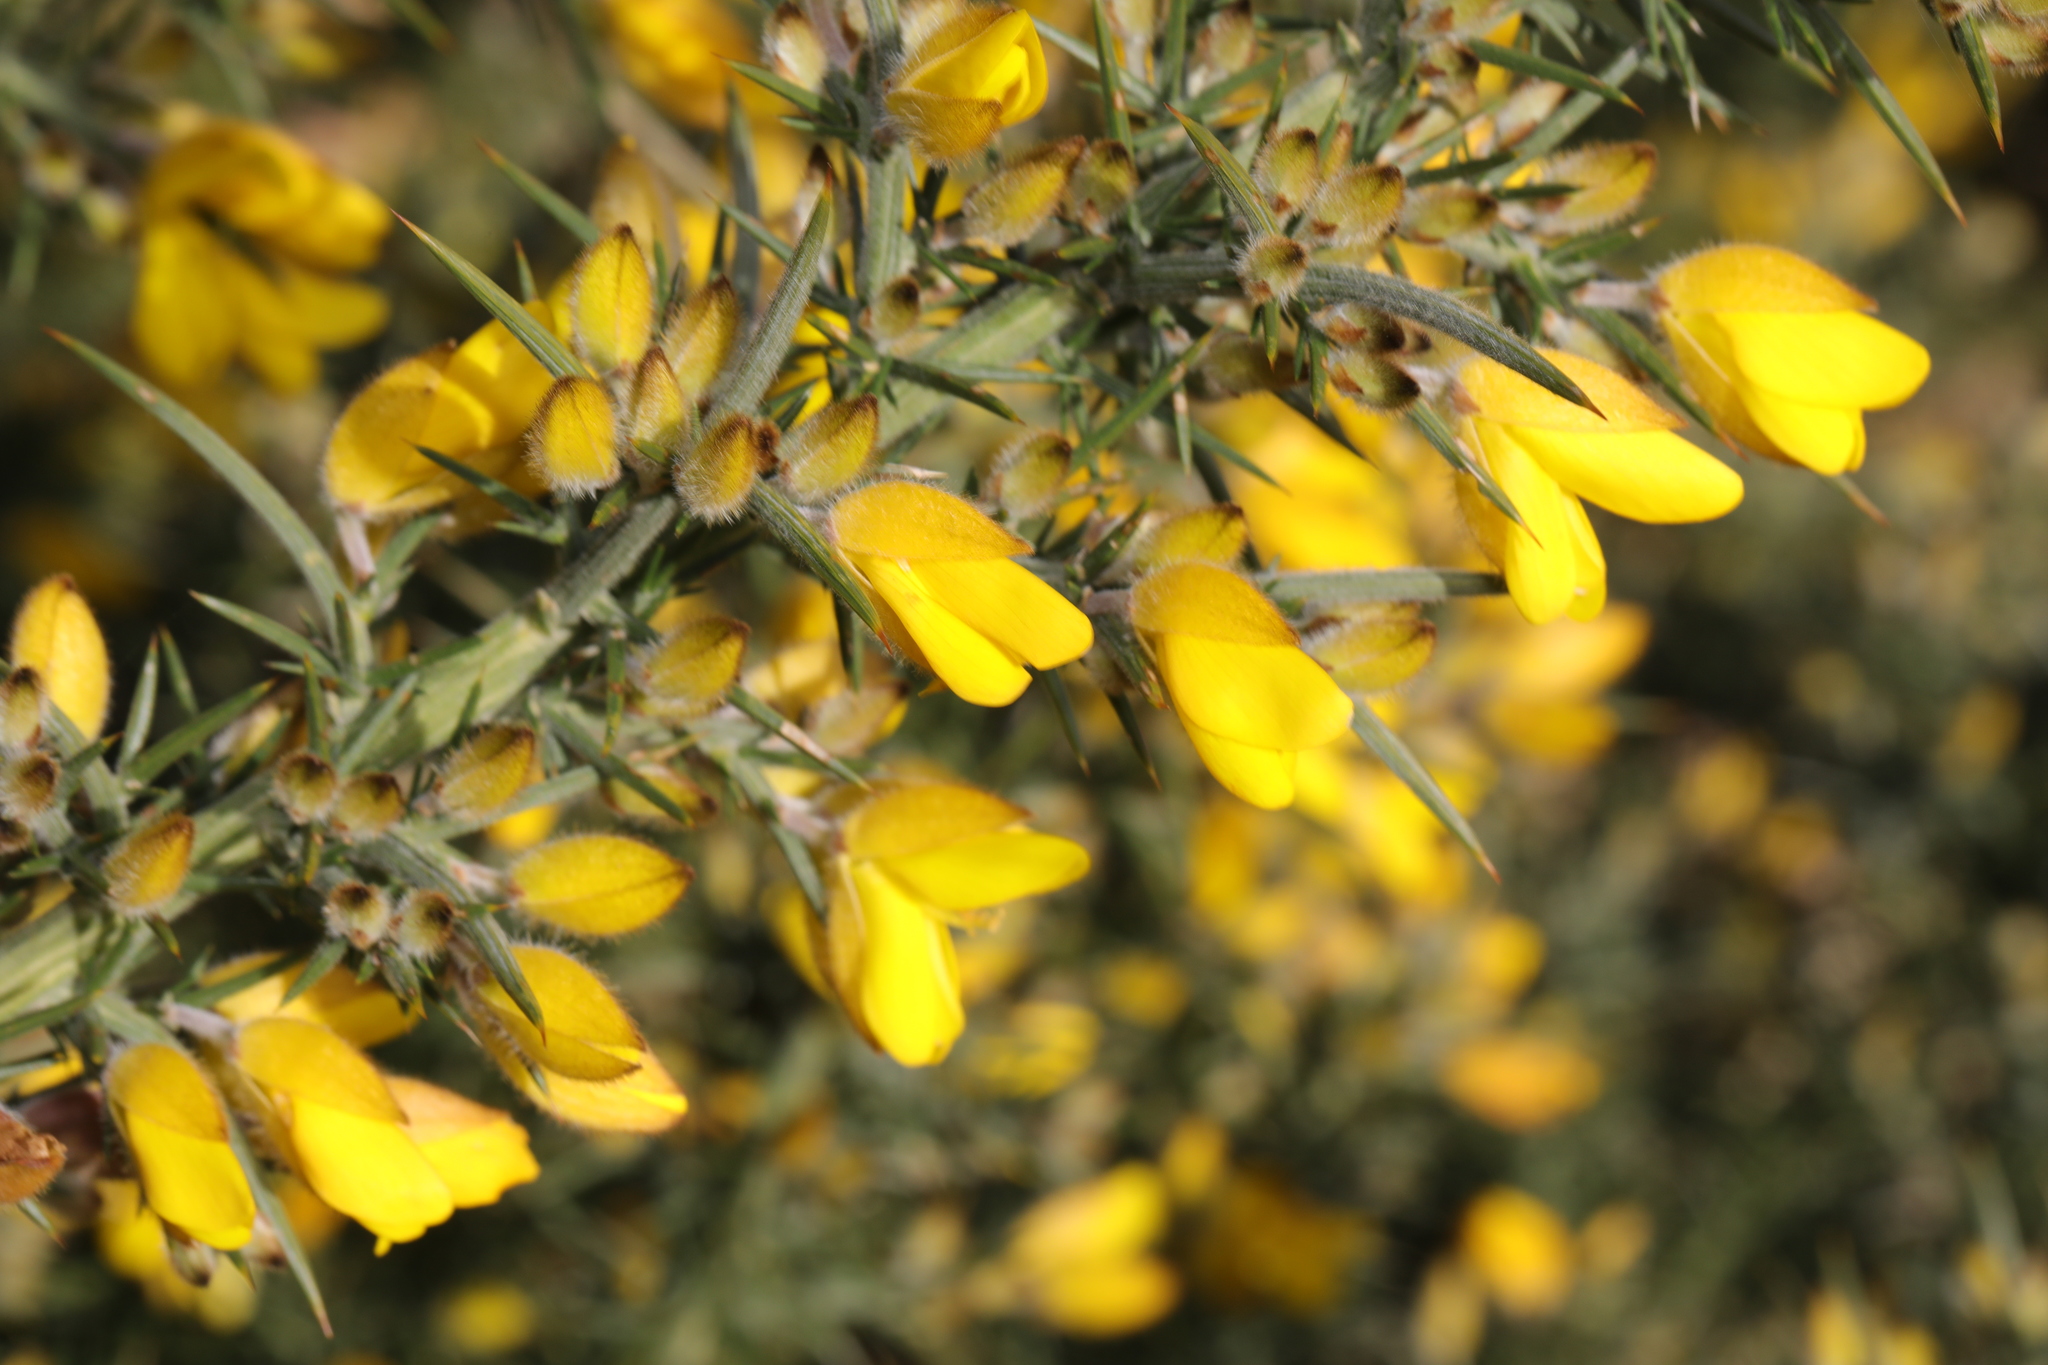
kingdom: Plantae
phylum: Tracheophyta
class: Magnoliopsida
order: Fabales
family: Fabaceae
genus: Ulex
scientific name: Ulex europaeus
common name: Common gorse
